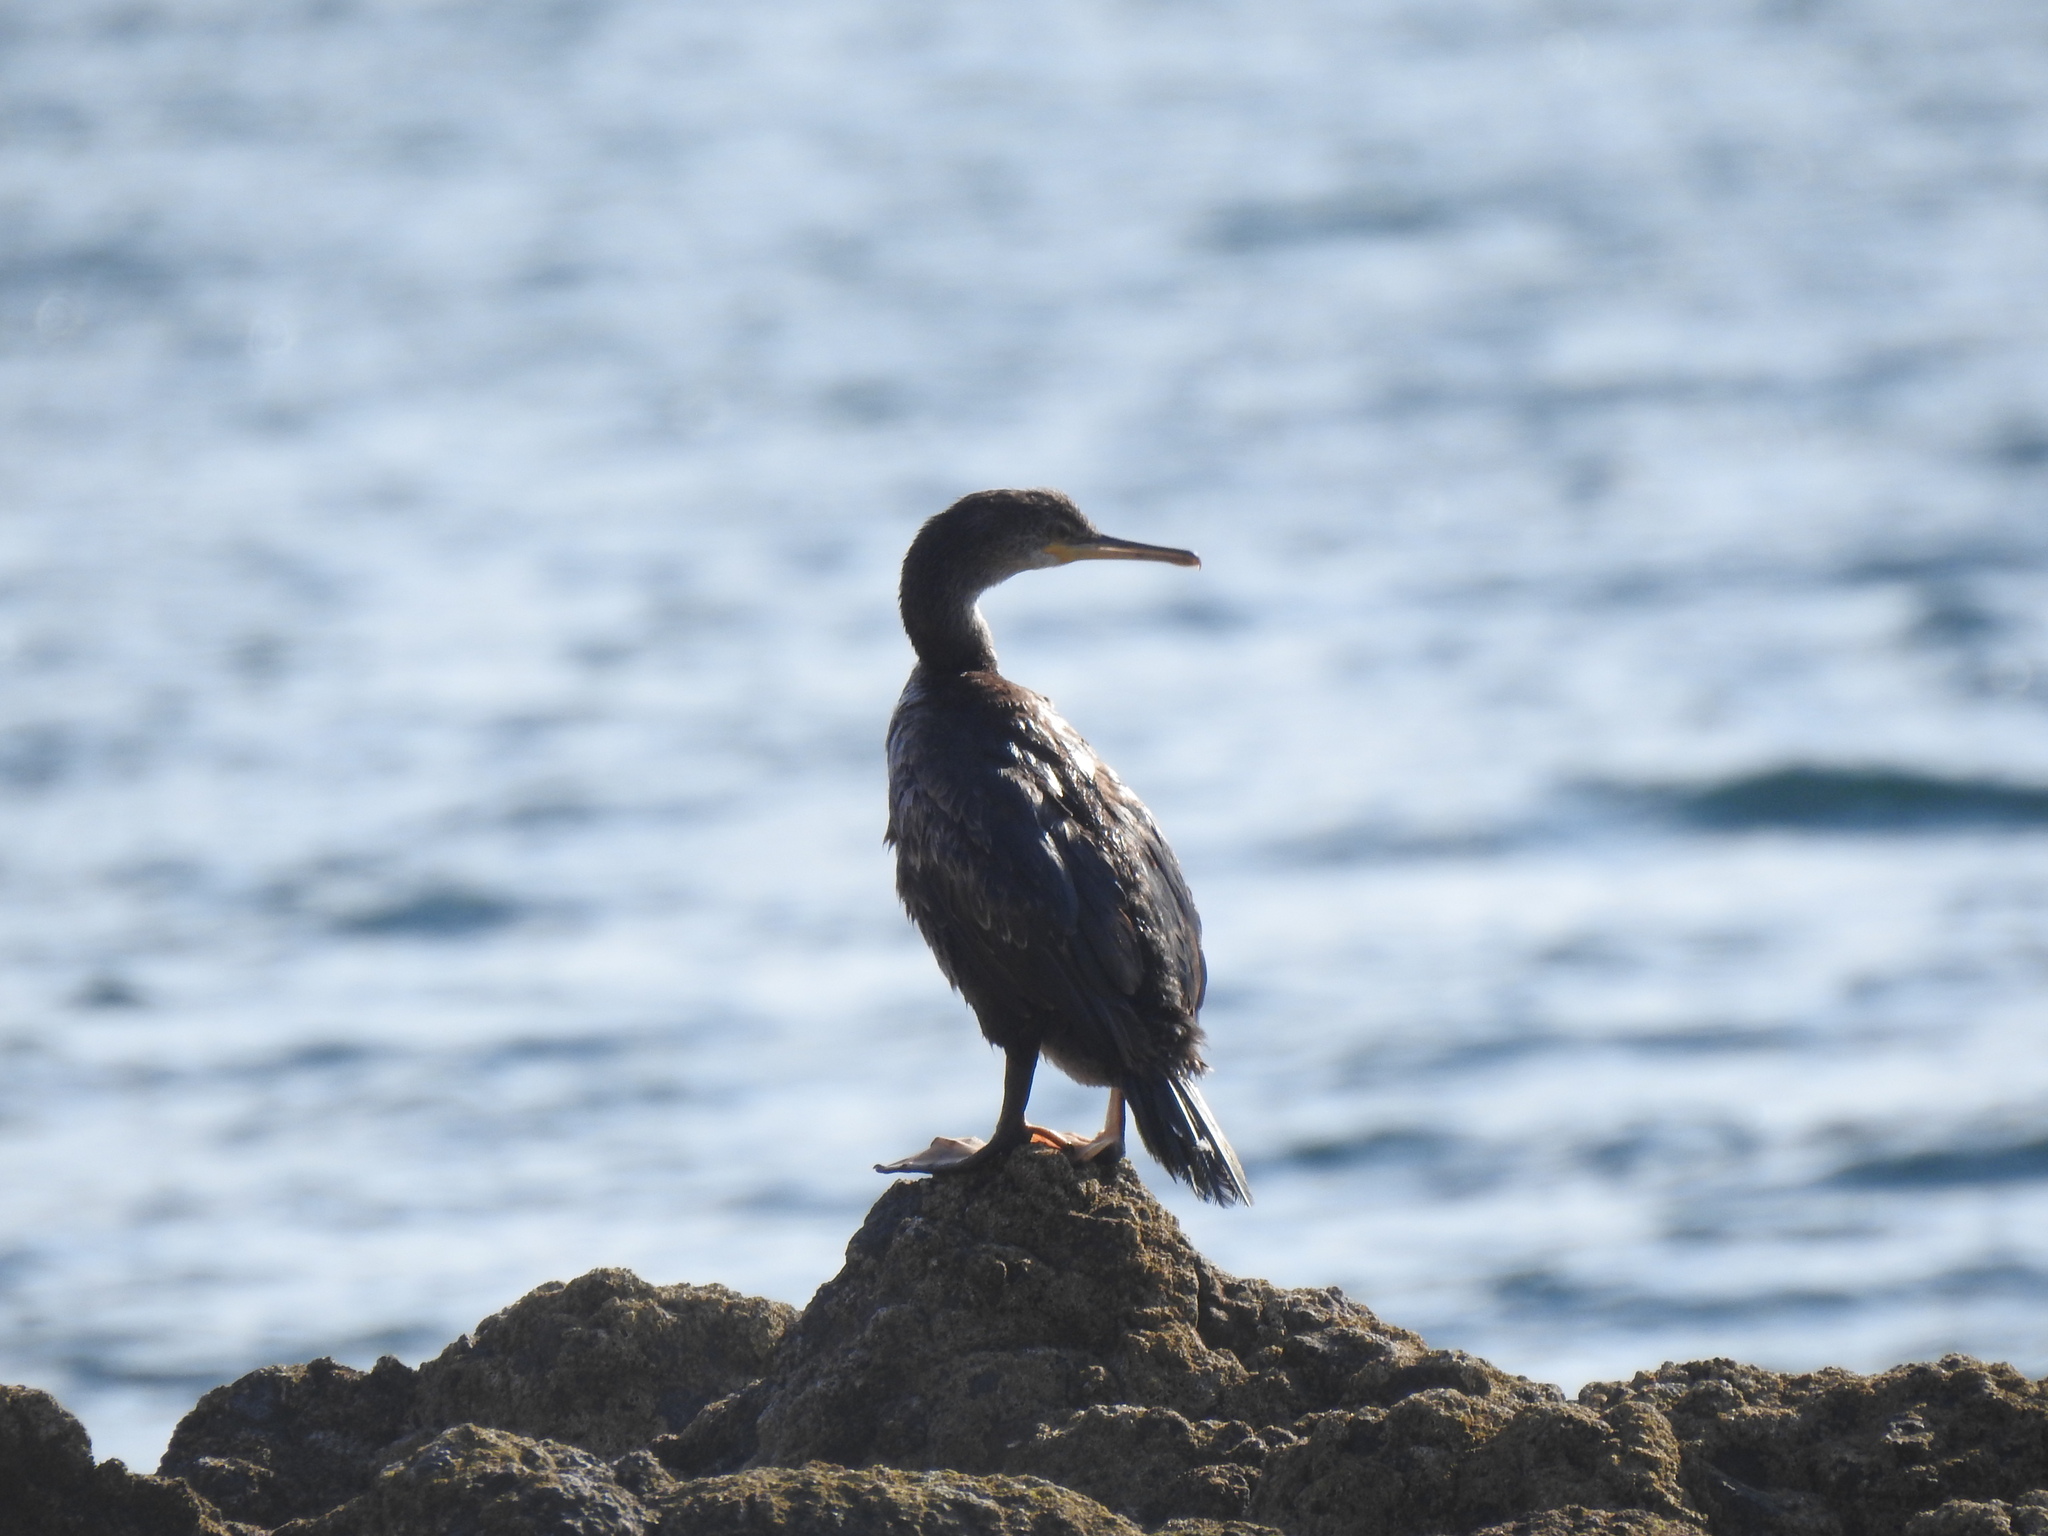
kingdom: Animalia
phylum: Chordata
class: Aves
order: Suliformes
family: Phalacrocoracidae
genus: Phalacrocorax
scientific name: Phalacrocorax aristotelis
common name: European shag
